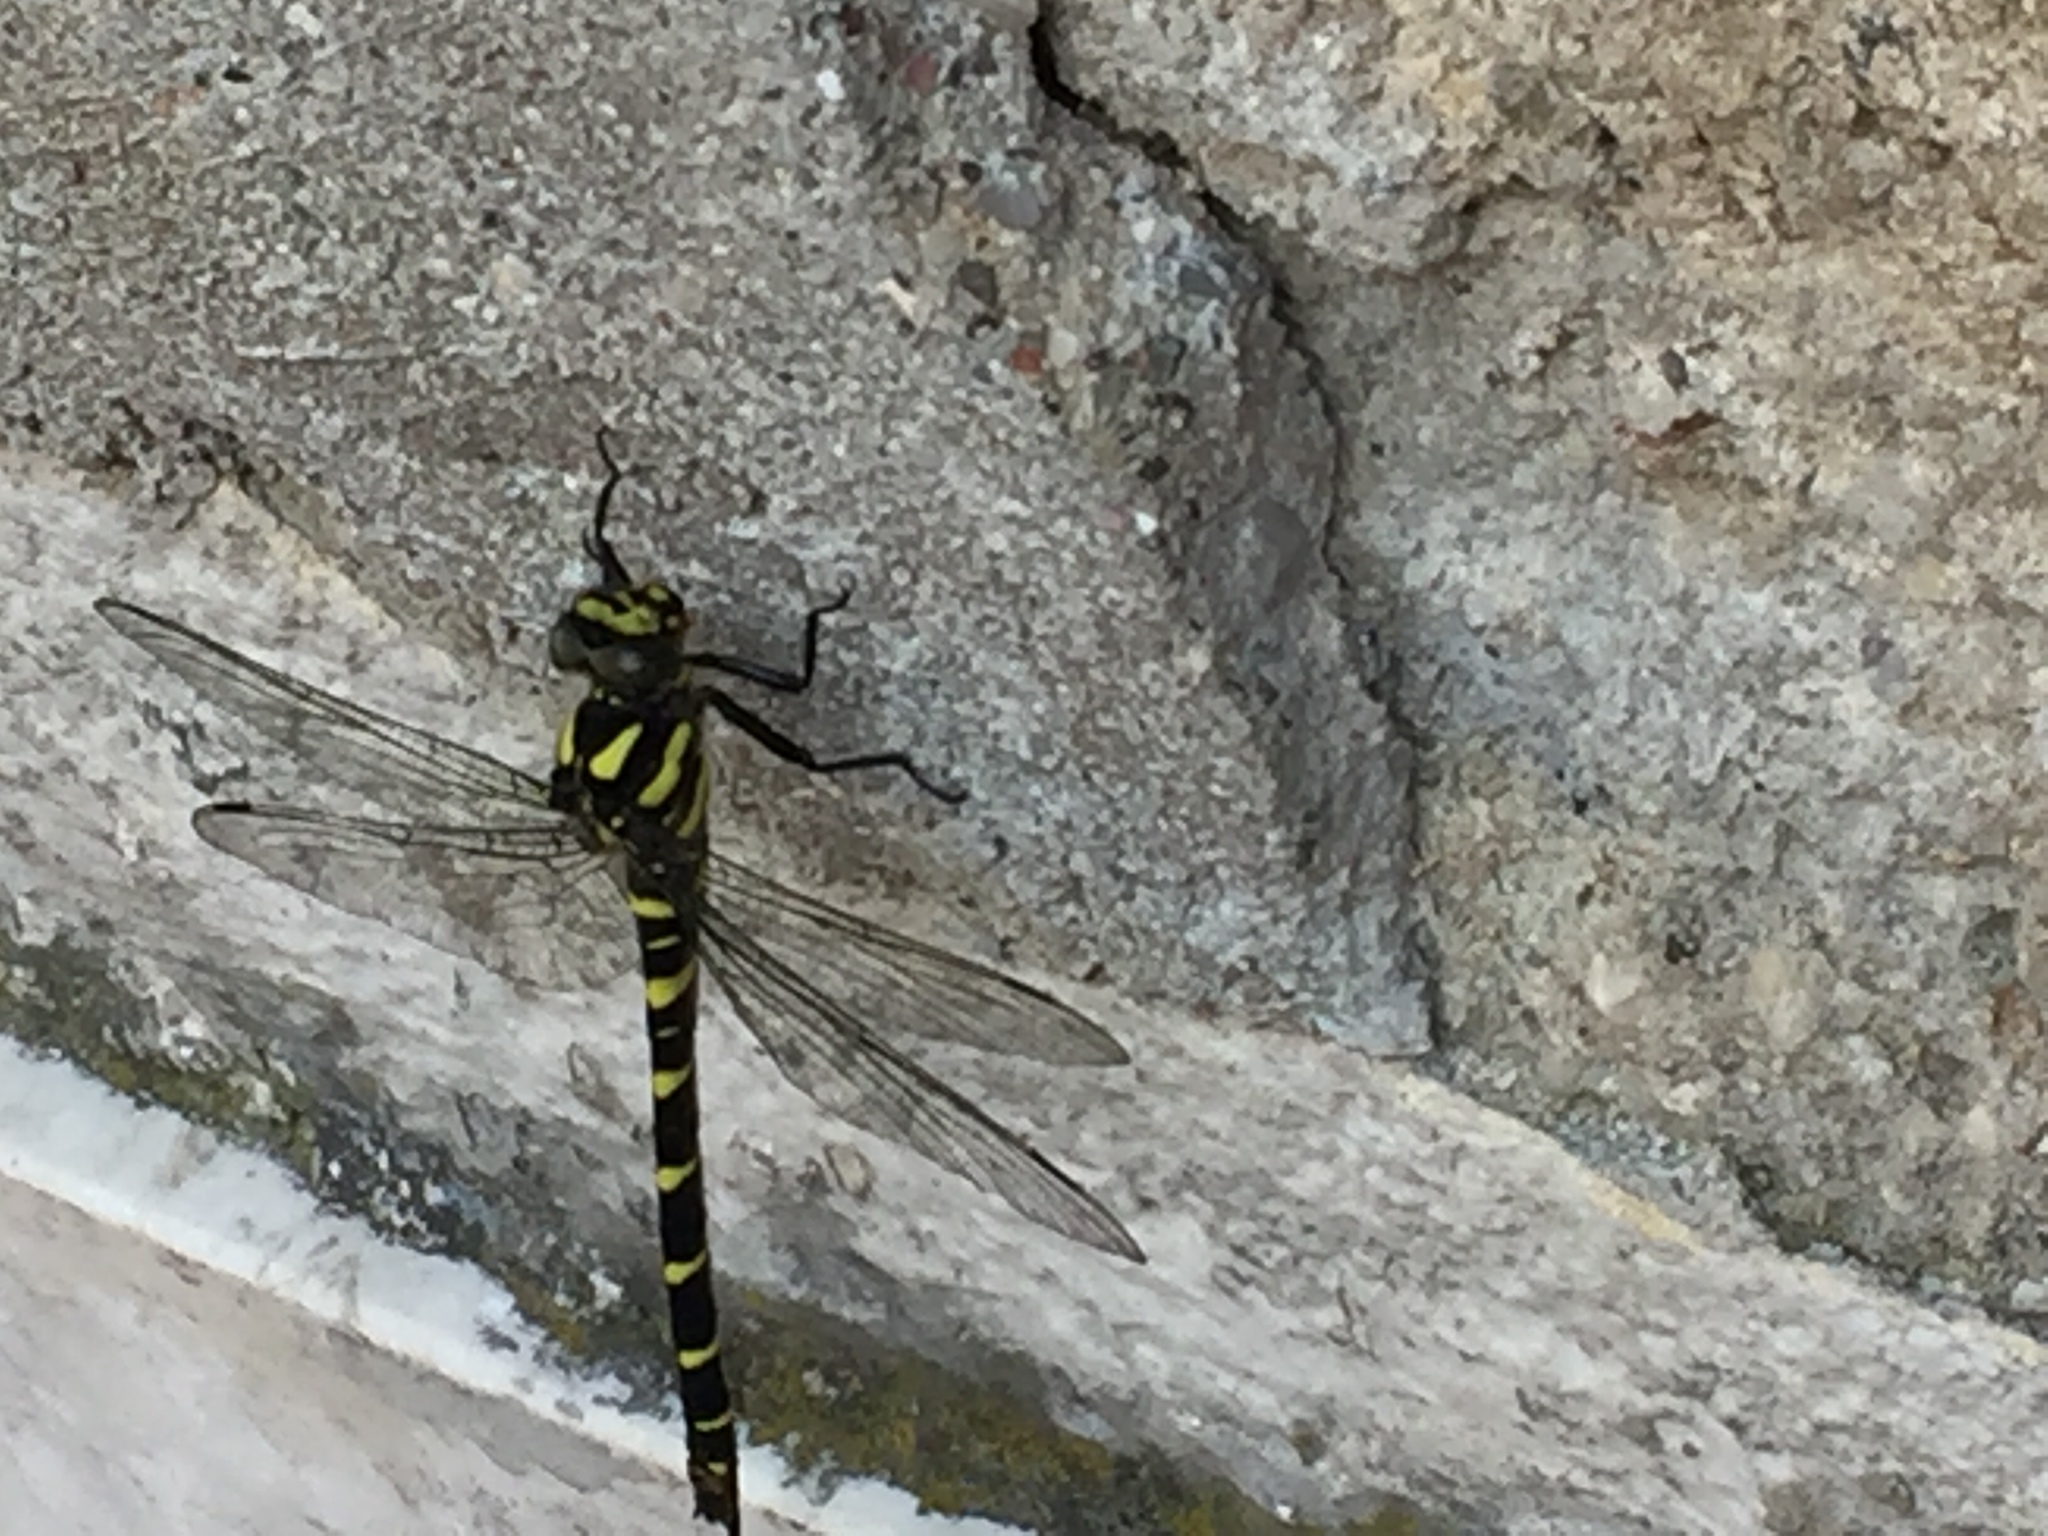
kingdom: Animalia
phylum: Arthropoda
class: Insecta
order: Odonata
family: Cordulegastridae
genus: Cordulegaster
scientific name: Cordulegaster bidentata
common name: Sombre goldenring
